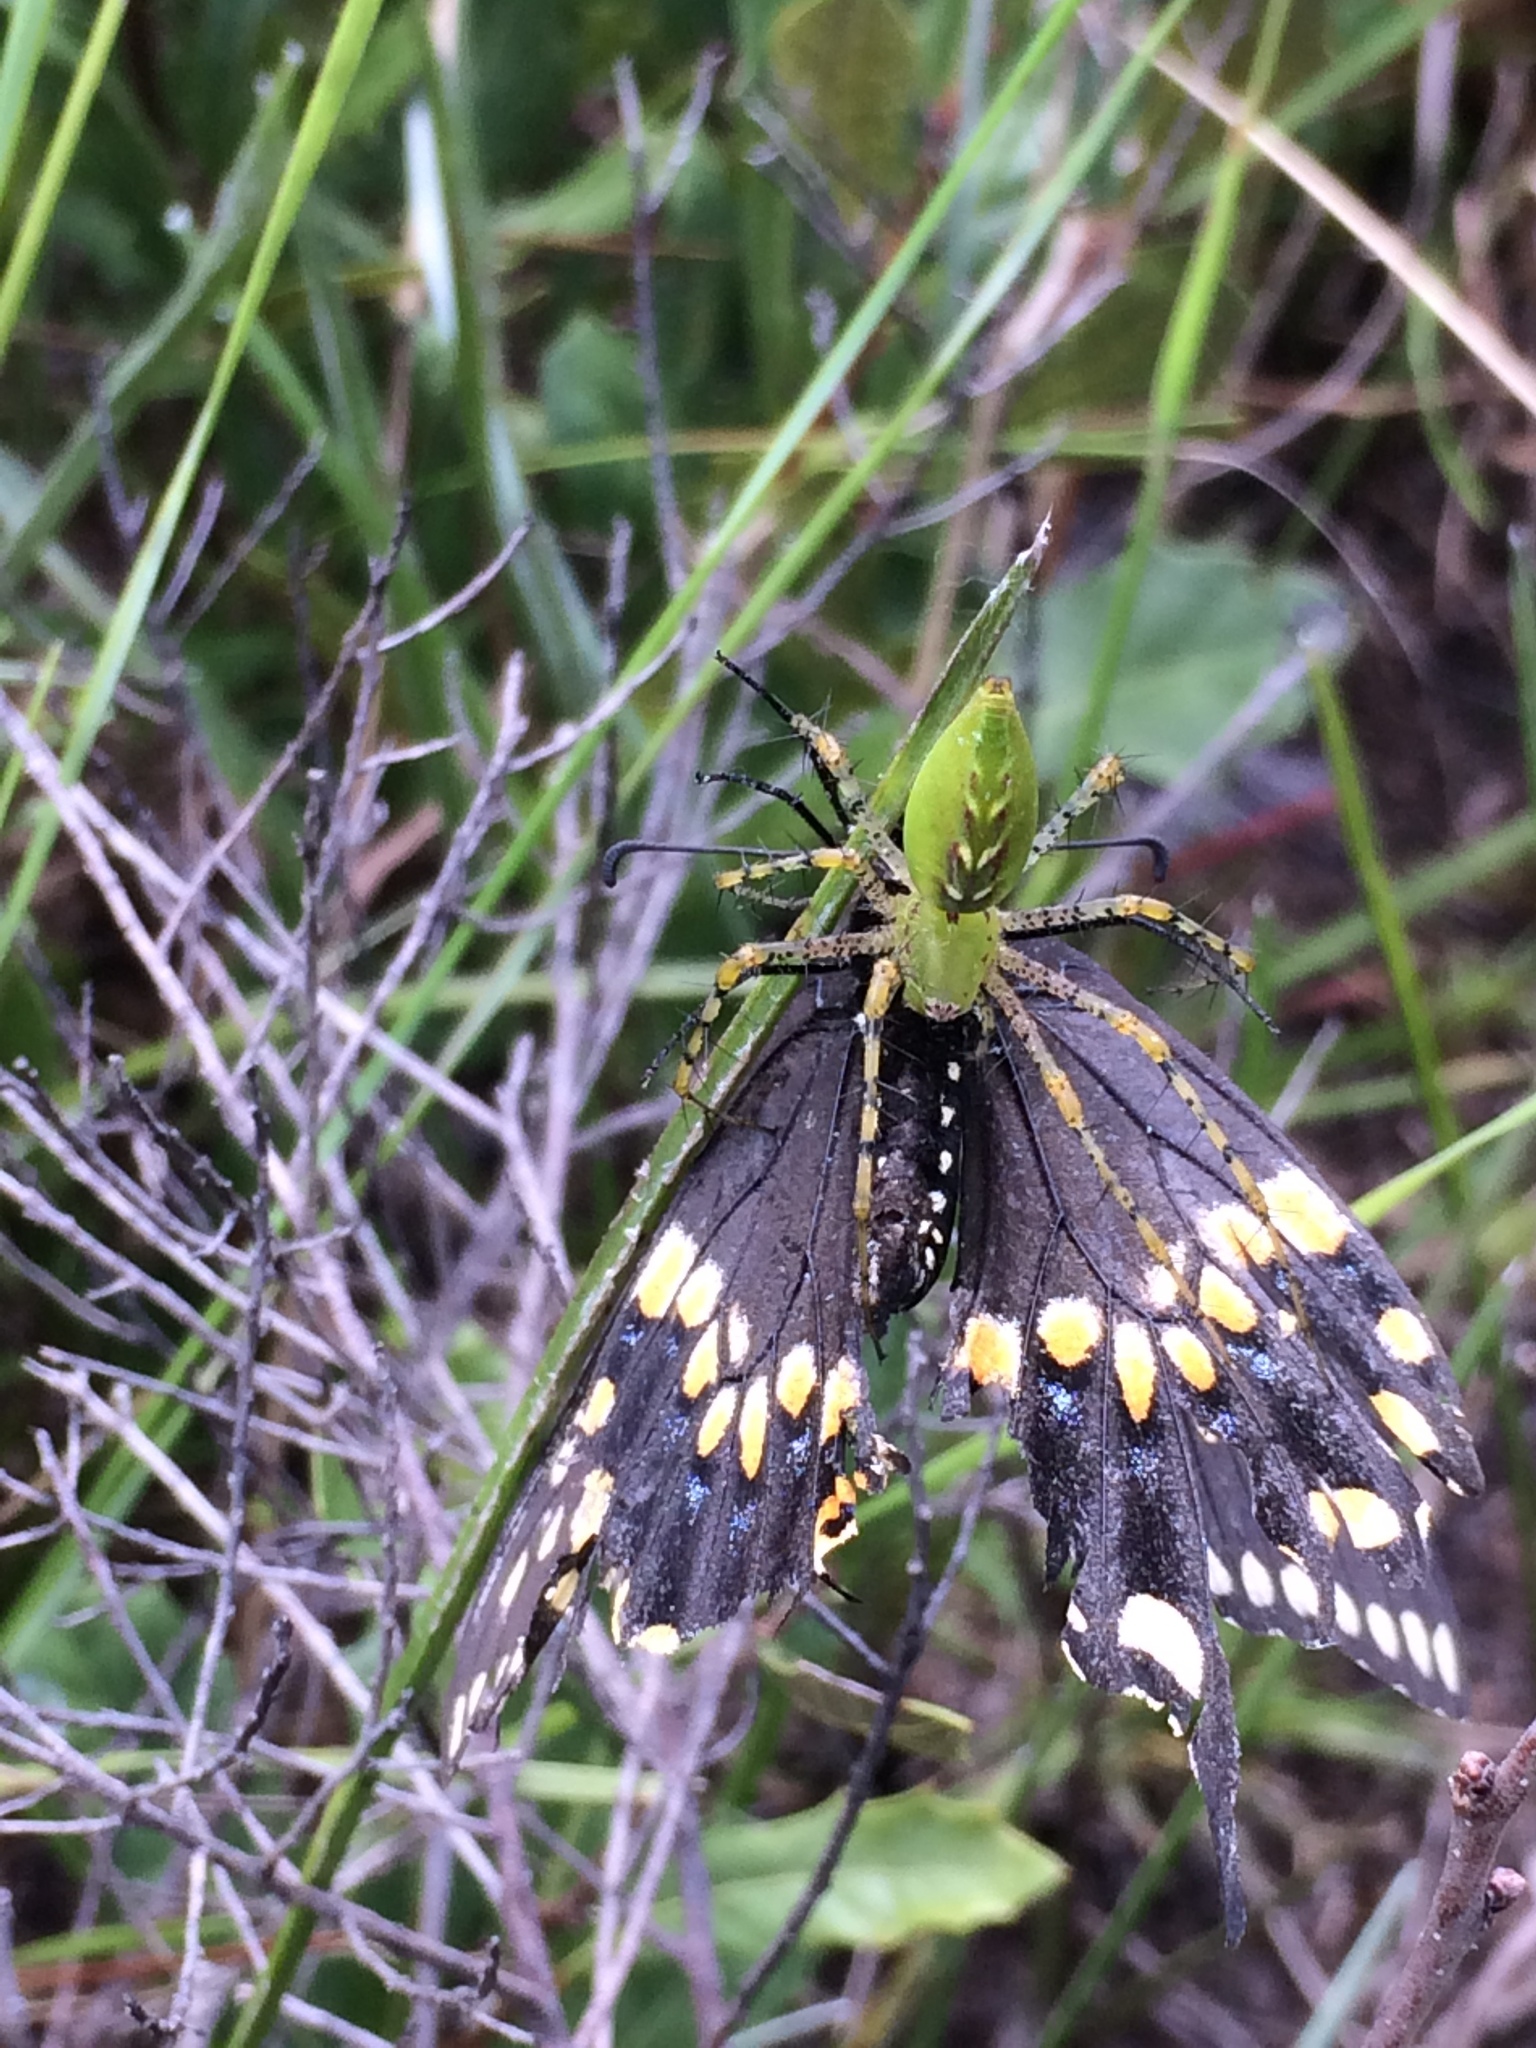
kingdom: Animalia
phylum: Arthropoda
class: Insecta
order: Lepidoptera
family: Papilionidae
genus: Papilio
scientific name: Papilio polyxenes
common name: Black swallowtail
